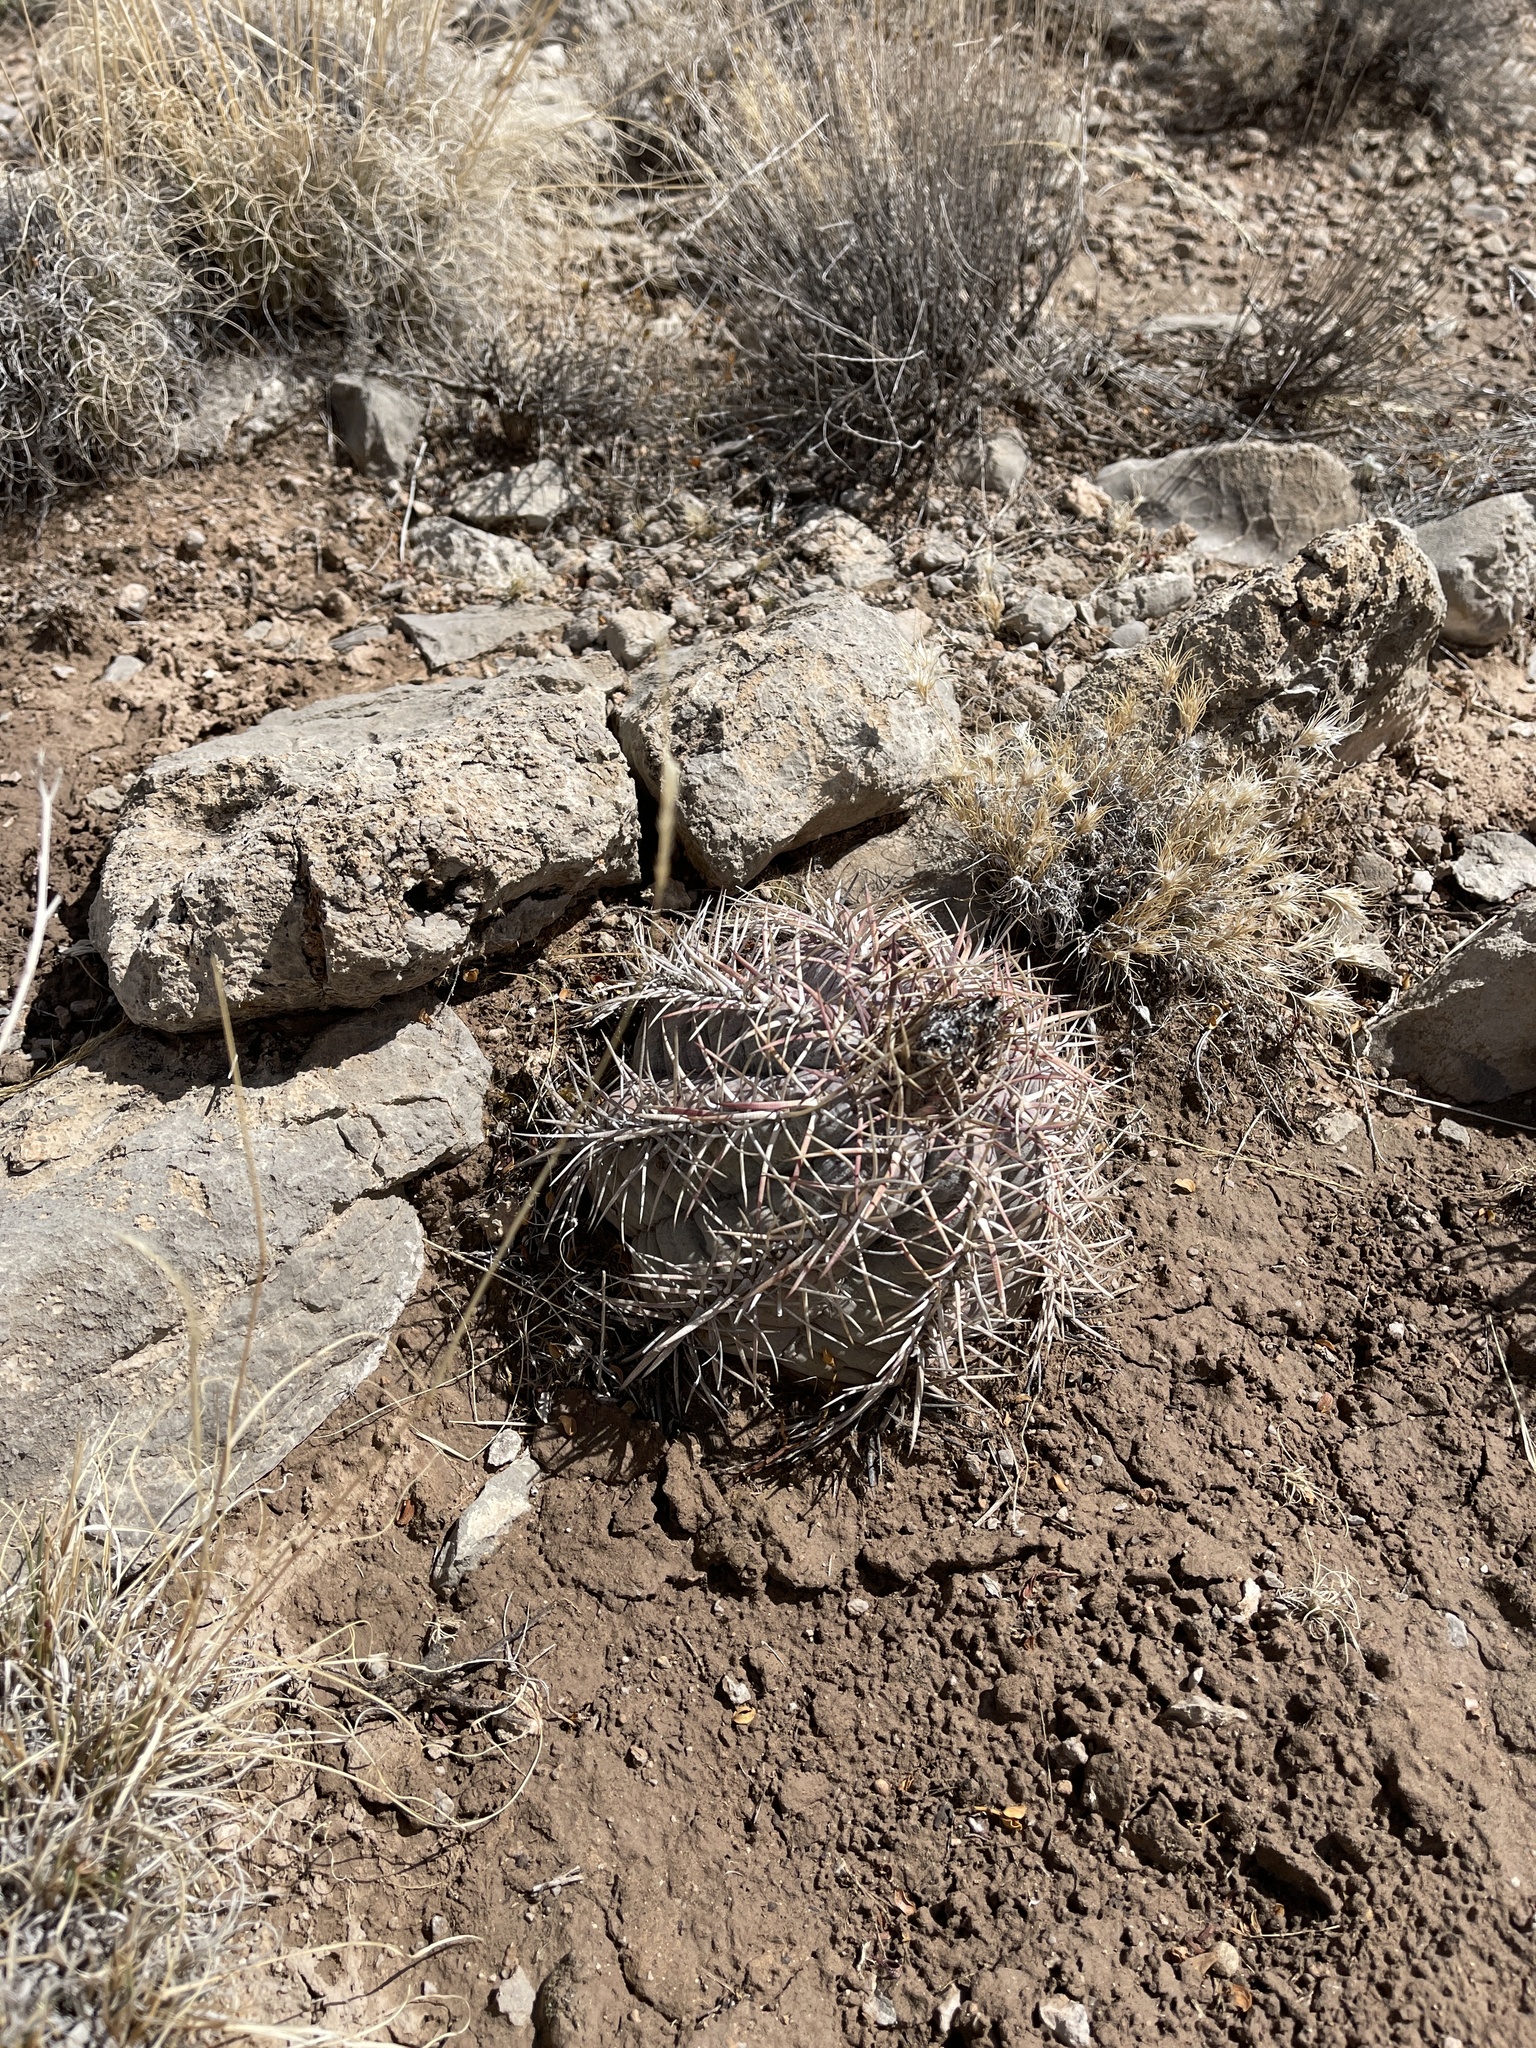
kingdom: Plantae
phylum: Tracheophyta
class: Magnoliopsida
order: Caryophyllales
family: Cactaceae
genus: Echinocactus
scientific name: Echinocactus horizonthalonius
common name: Devilshead
